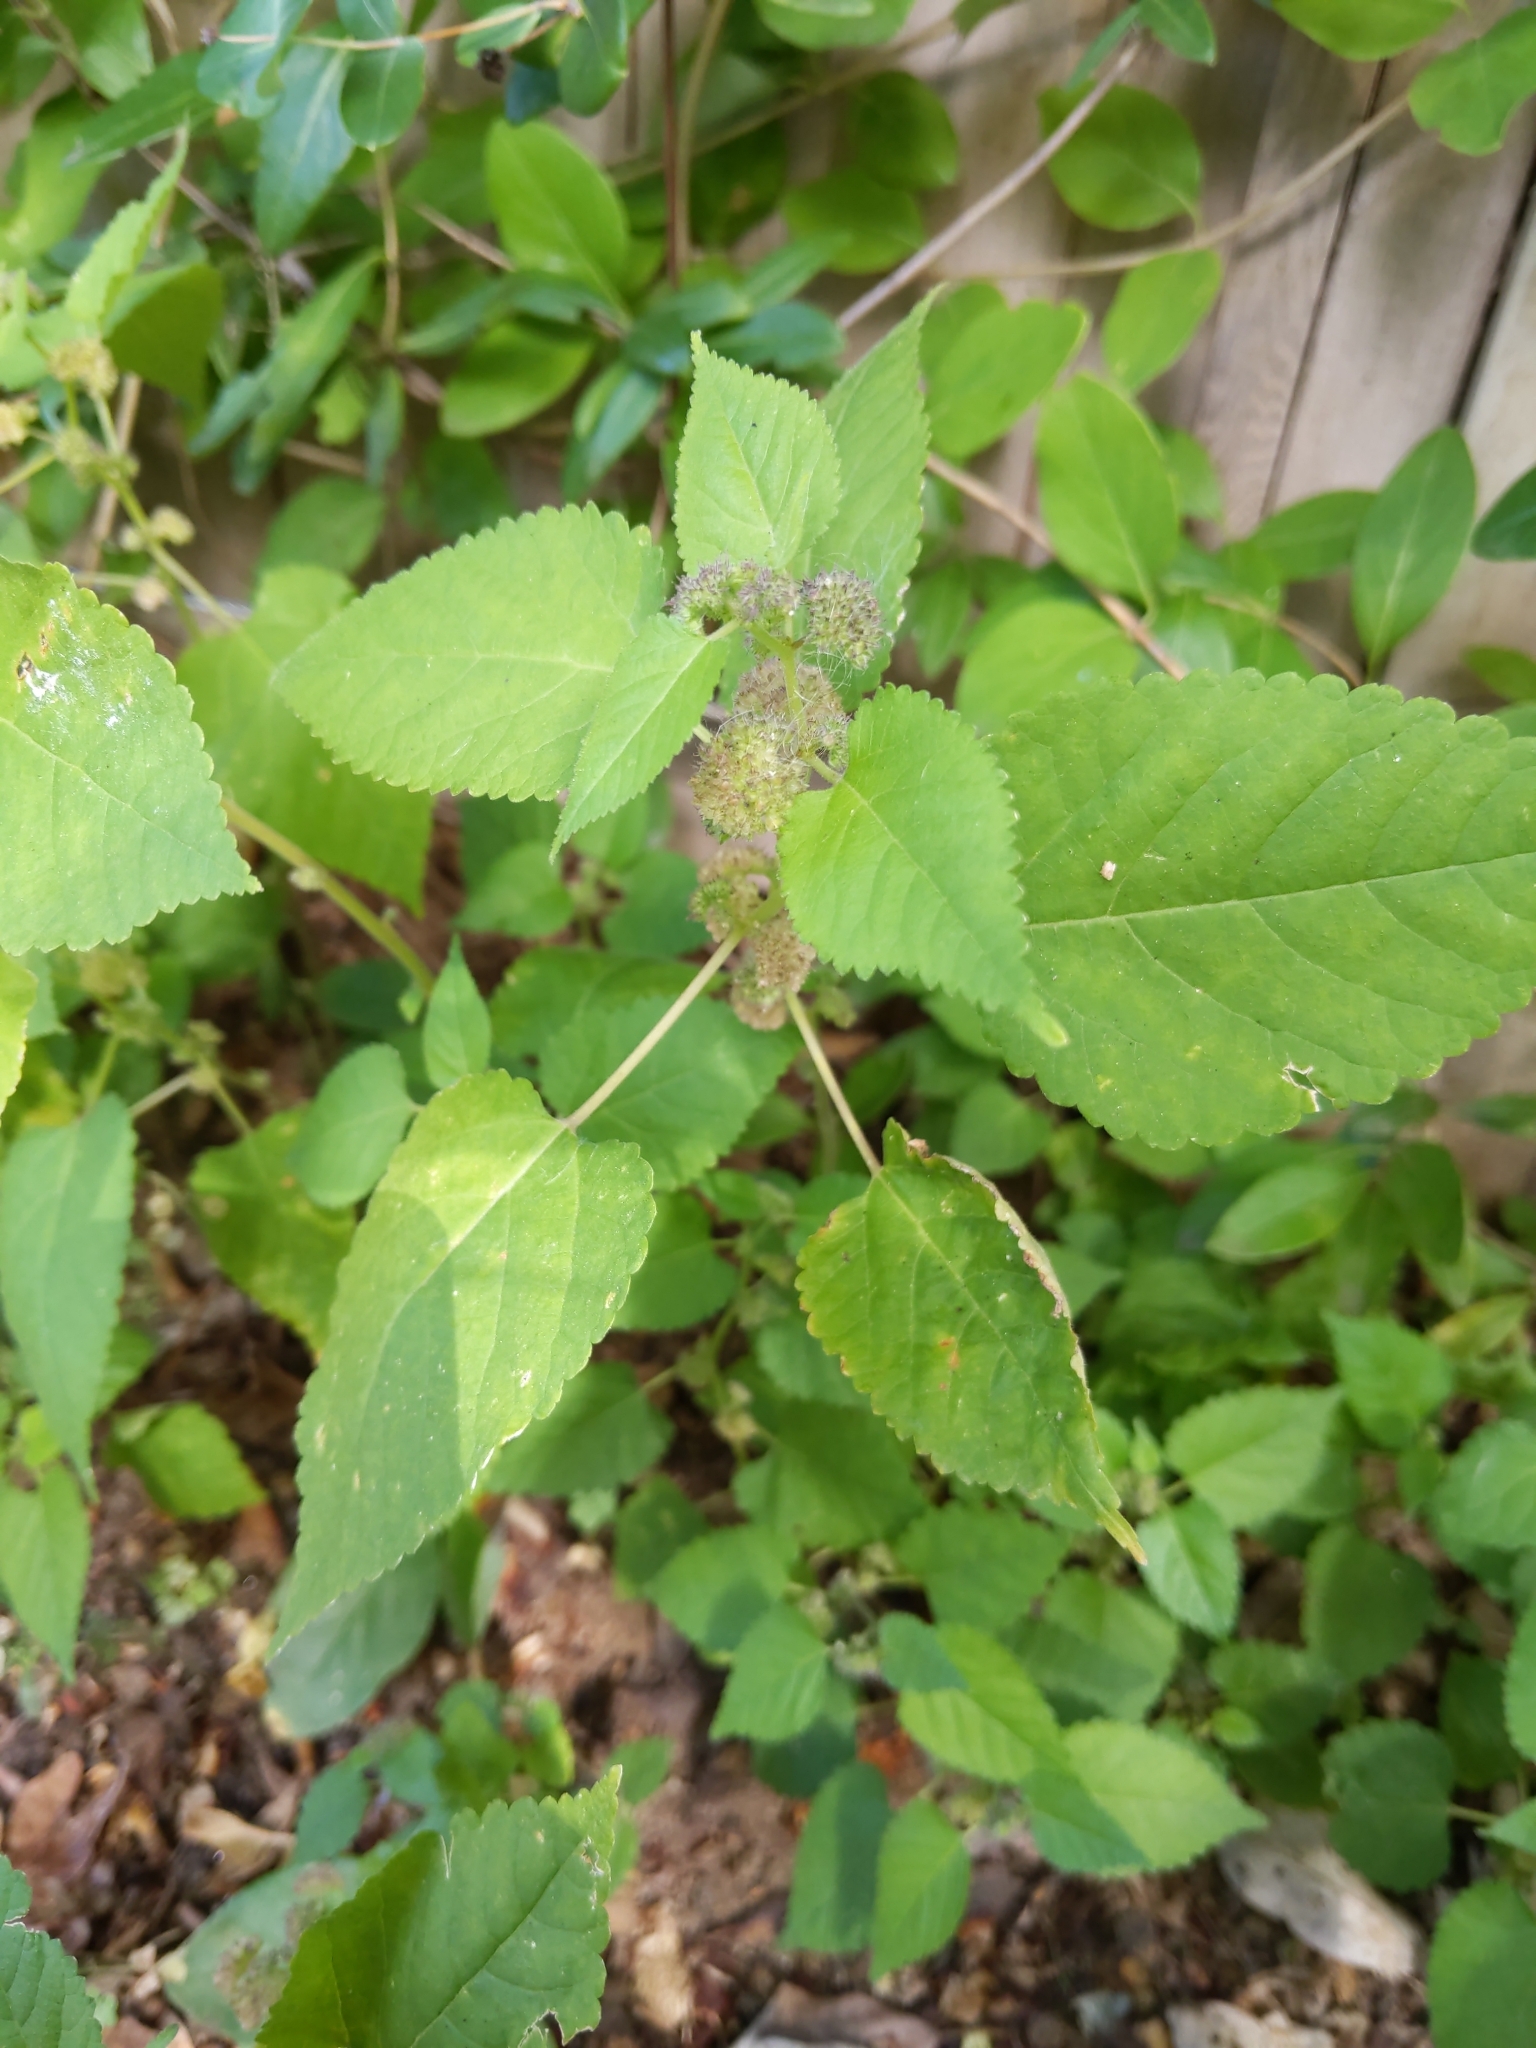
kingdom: Plantae
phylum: Tracheophyta
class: Magnoliopsida
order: Rosales
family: Moraceae
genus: Fatoua
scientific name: Fatoua villosa
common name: Hairy crabweed
